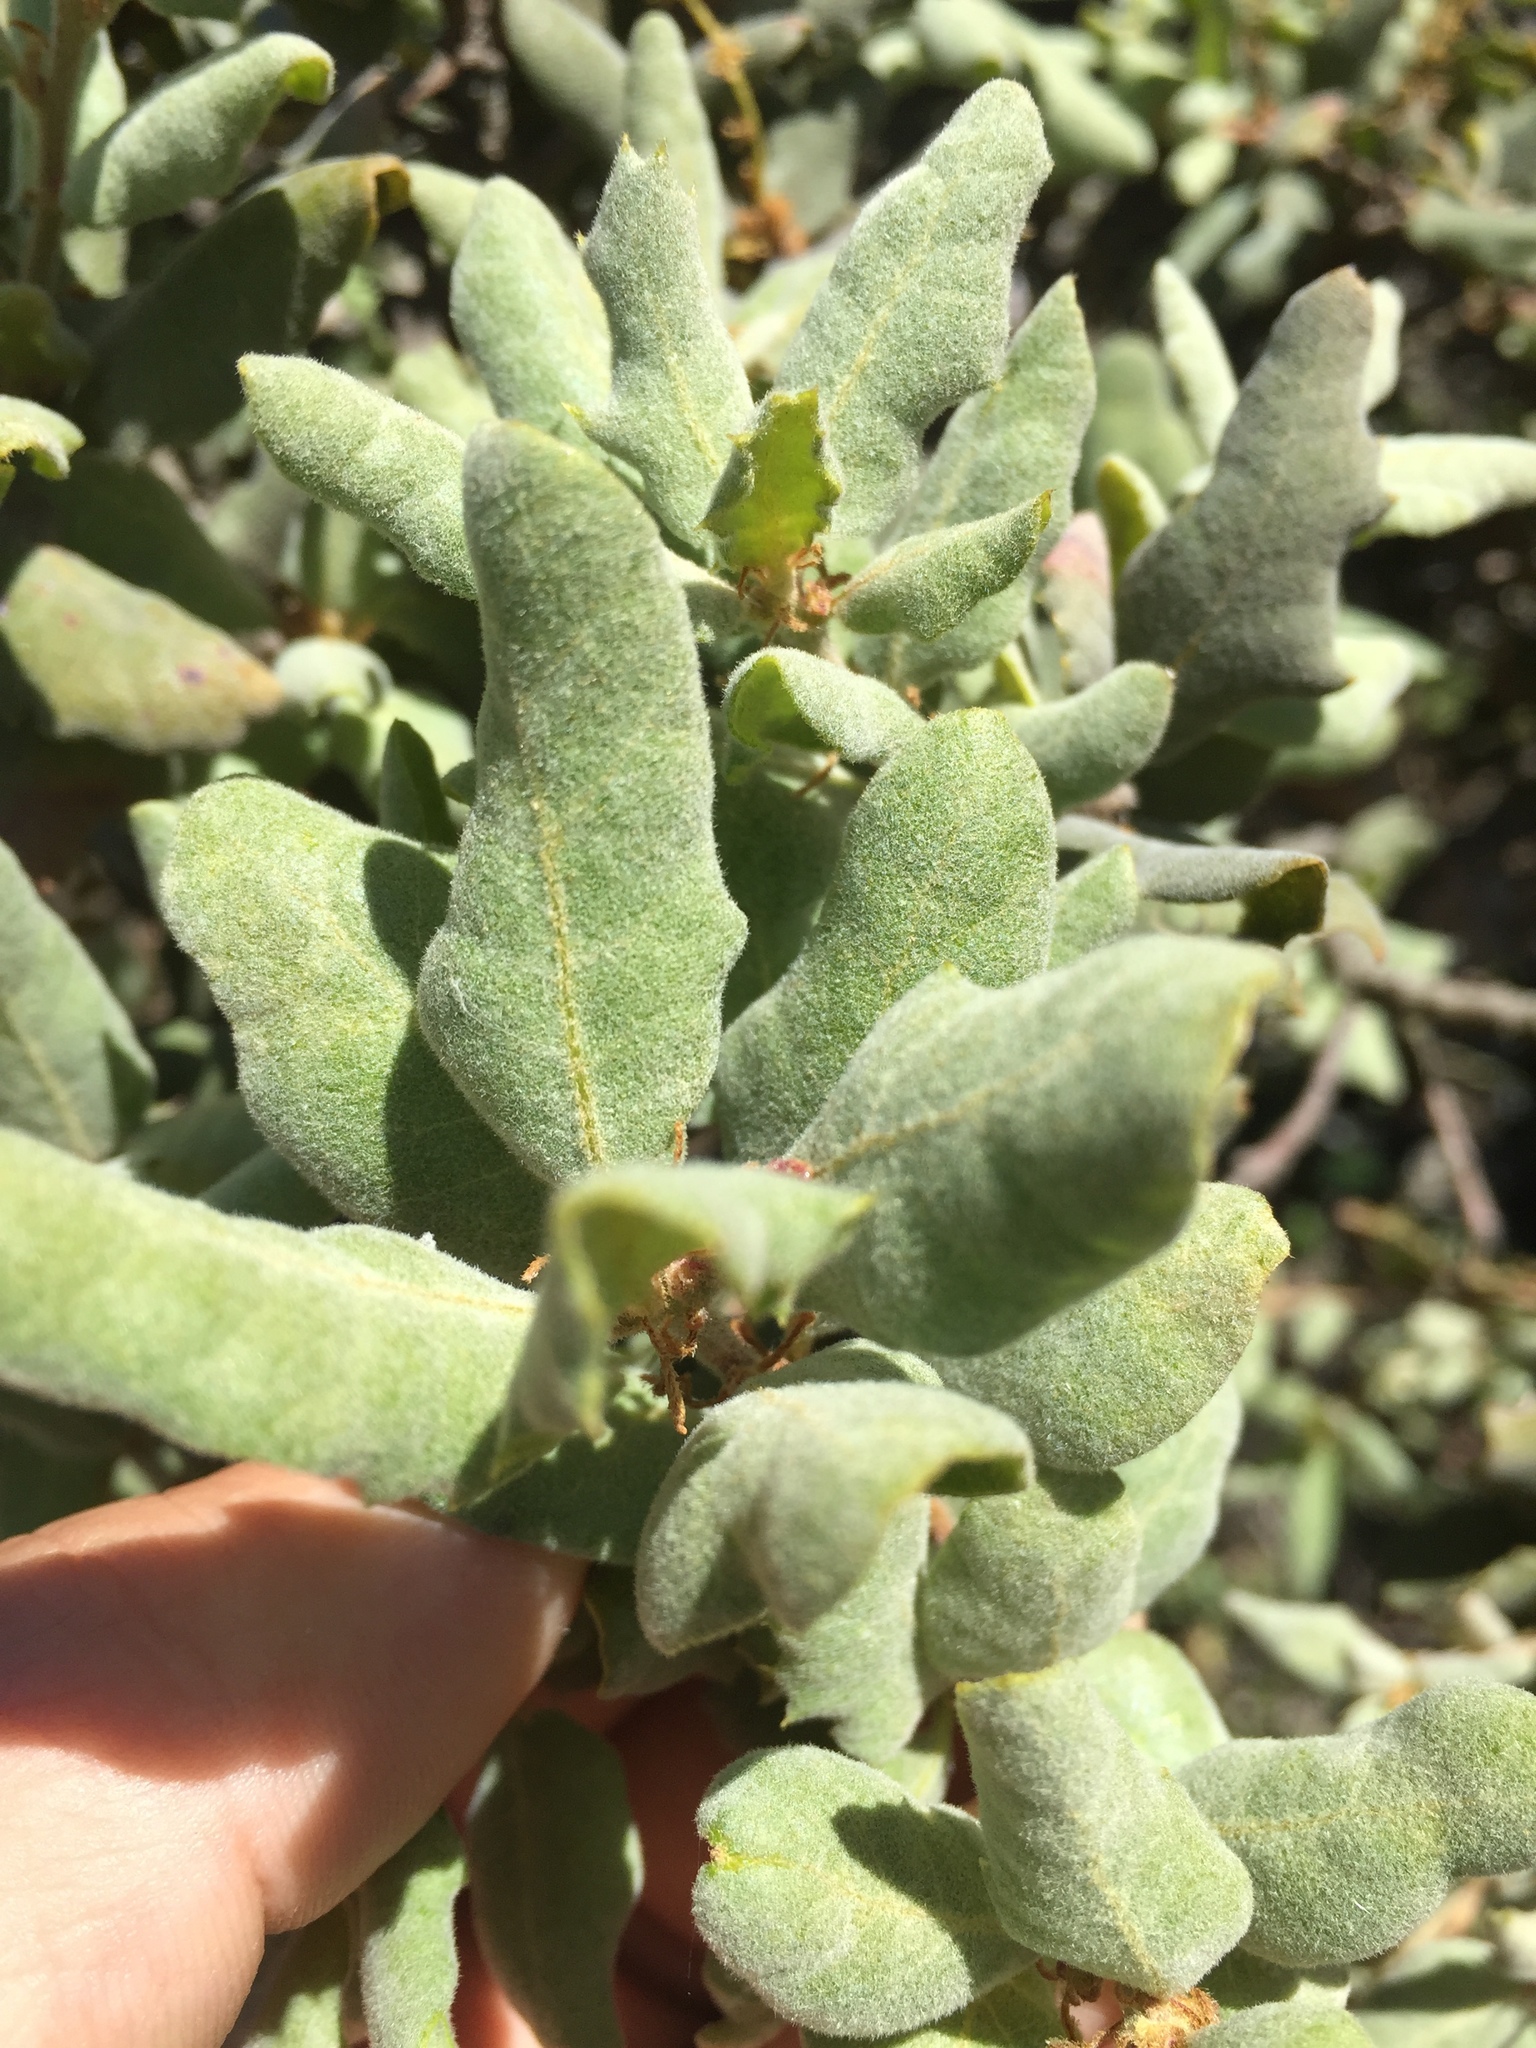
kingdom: Plantae
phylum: Tracheophyta
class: Magnoliopsida
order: Fagales
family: Fagaceae
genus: Quercus
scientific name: Quercus durata
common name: Leather oak
